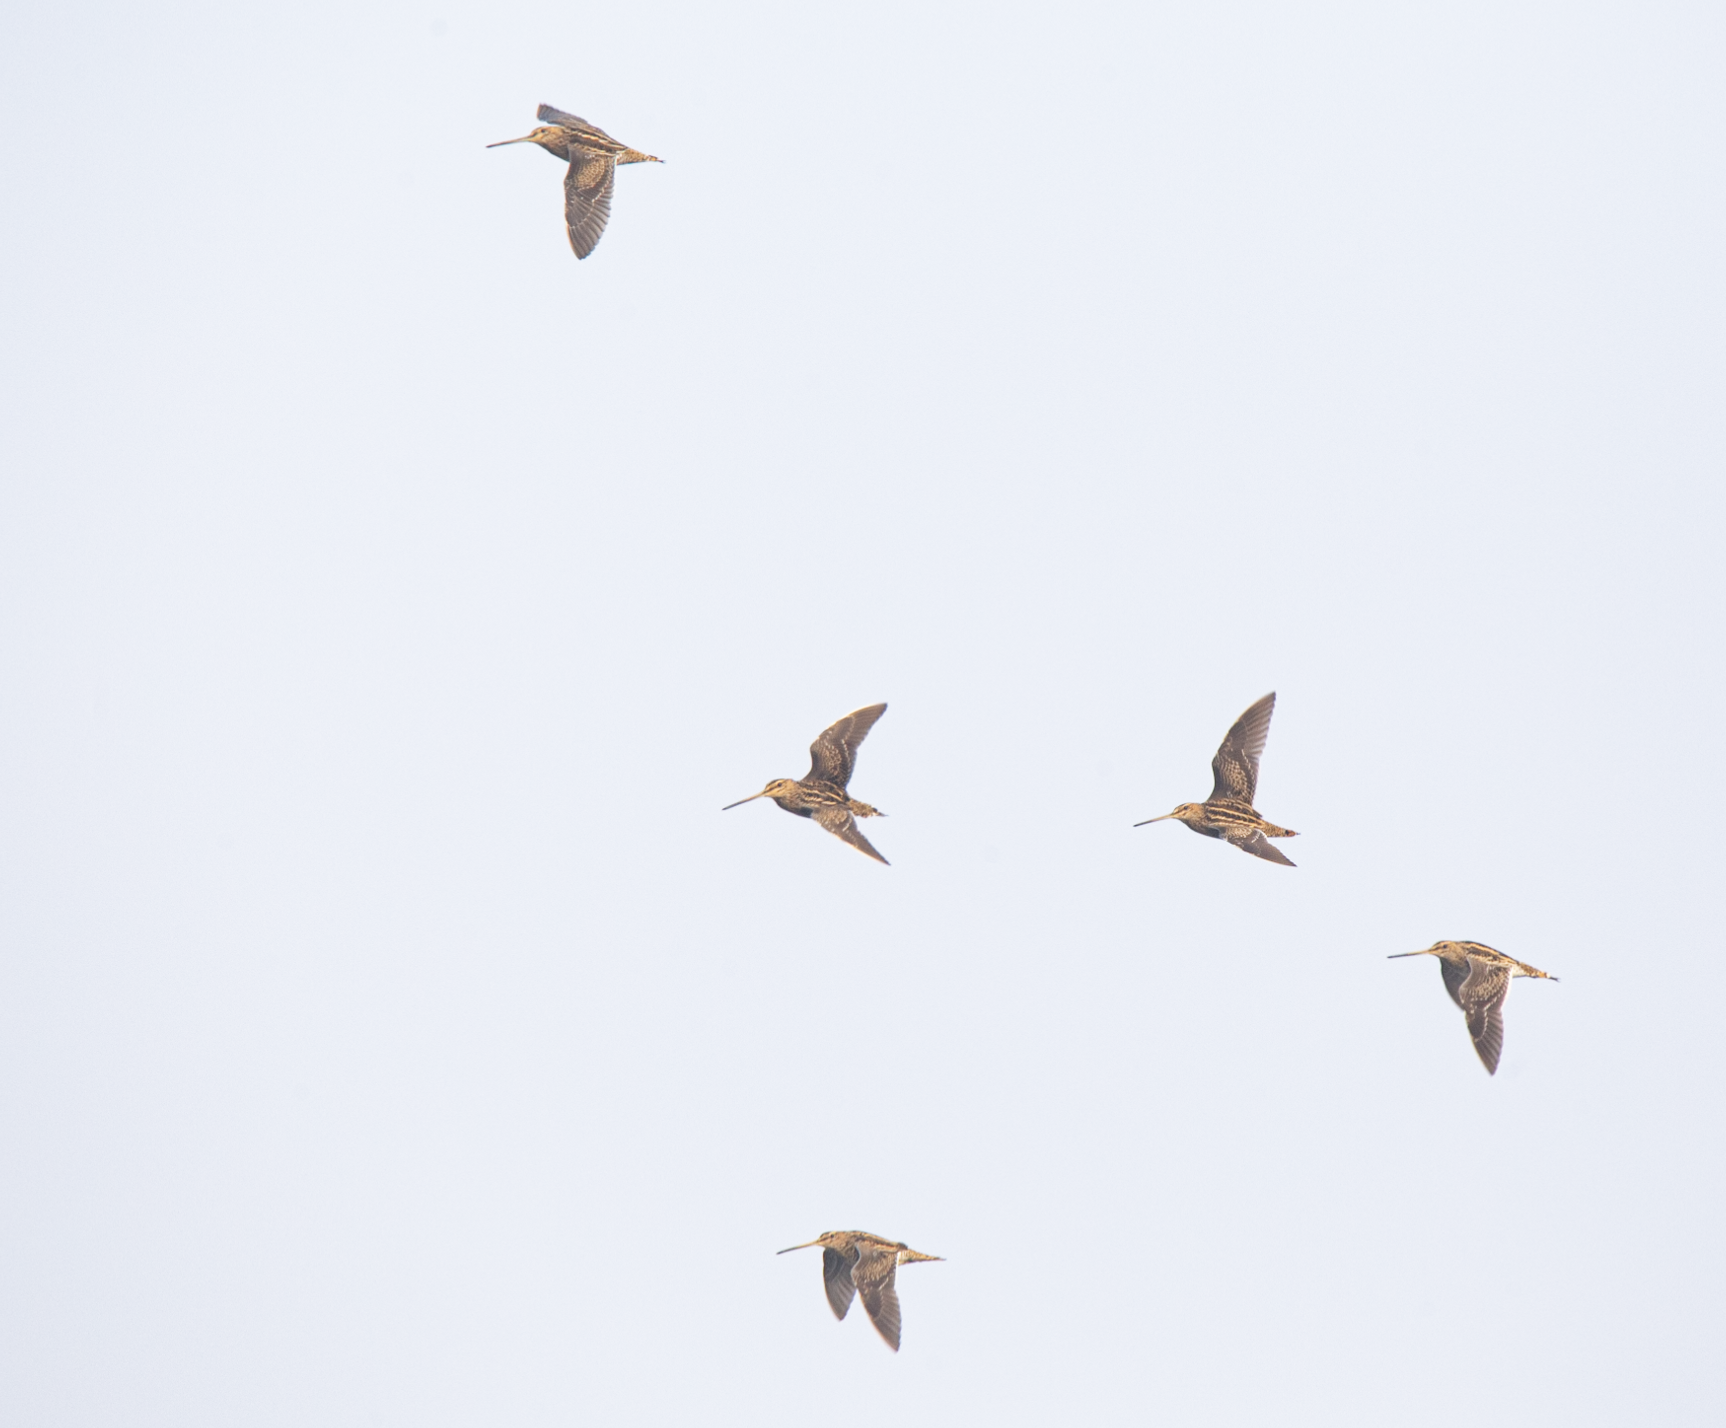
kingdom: Animalia
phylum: Chordata
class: Aves
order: Charadriiformes
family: Scolopacidae
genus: Gallinago
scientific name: Gallinago gallinago
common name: Common snipe
